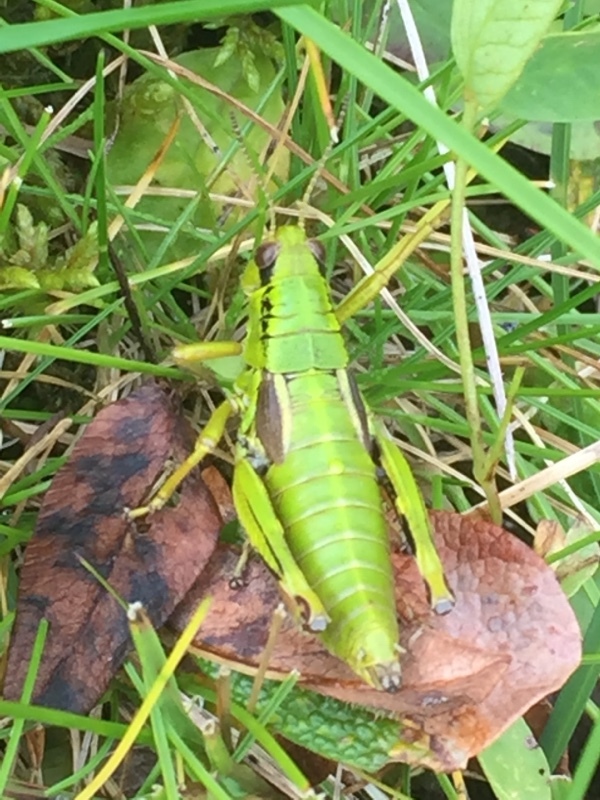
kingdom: Animalia
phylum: Arthropoda
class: Insecta
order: Orthoptera
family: Acrididae
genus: Miramella
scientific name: Miramella alpina
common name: Green mountain grasshopper
